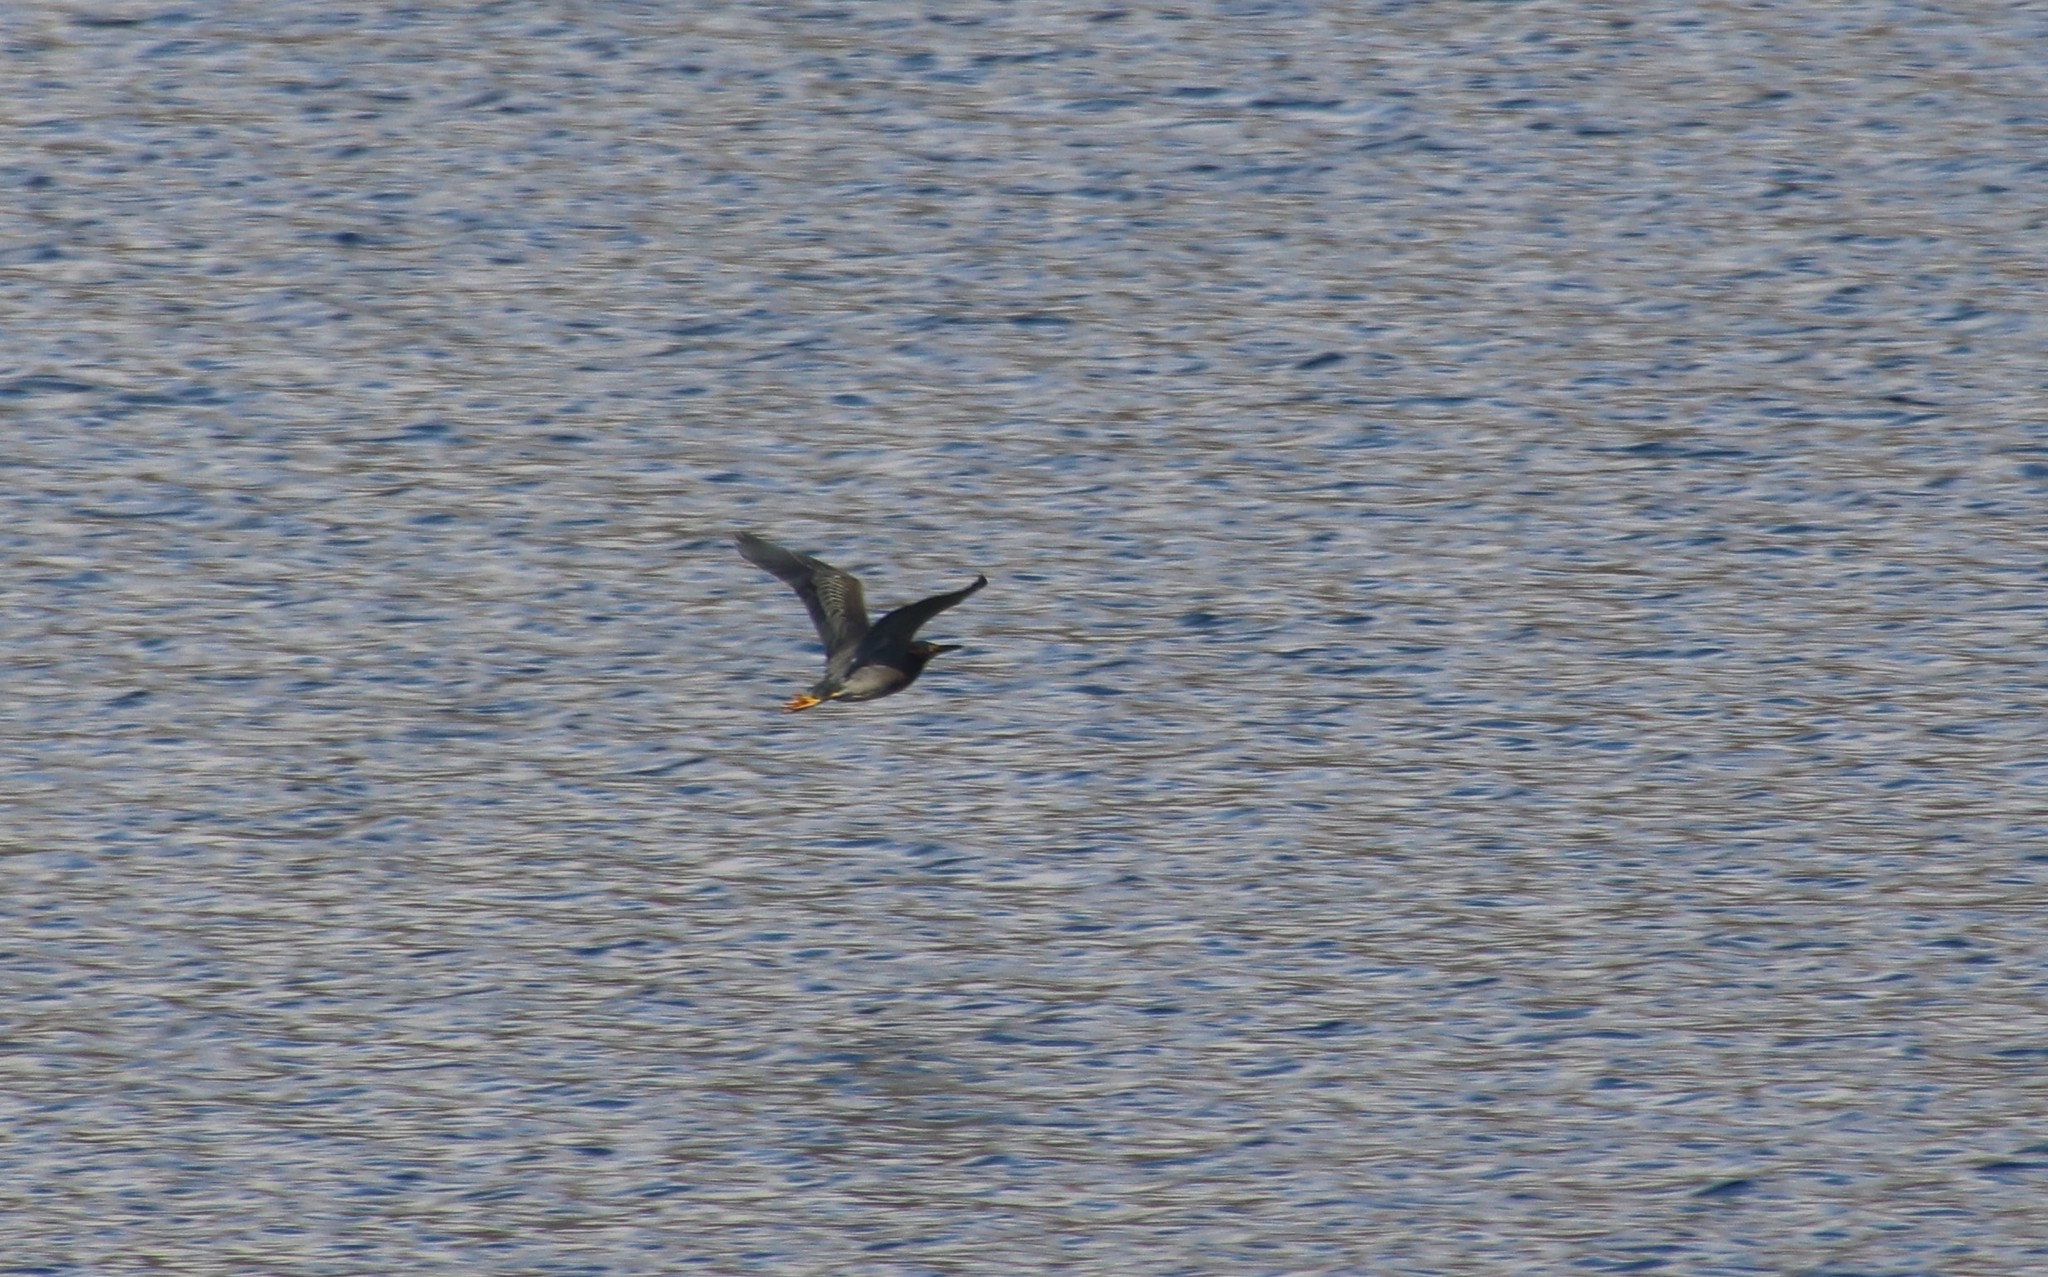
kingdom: Animalia
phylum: Chordata
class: Aves
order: Pelecaniformes
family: Ardeidae
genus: Butorides
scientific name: Butorides virescens
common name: Green heron
